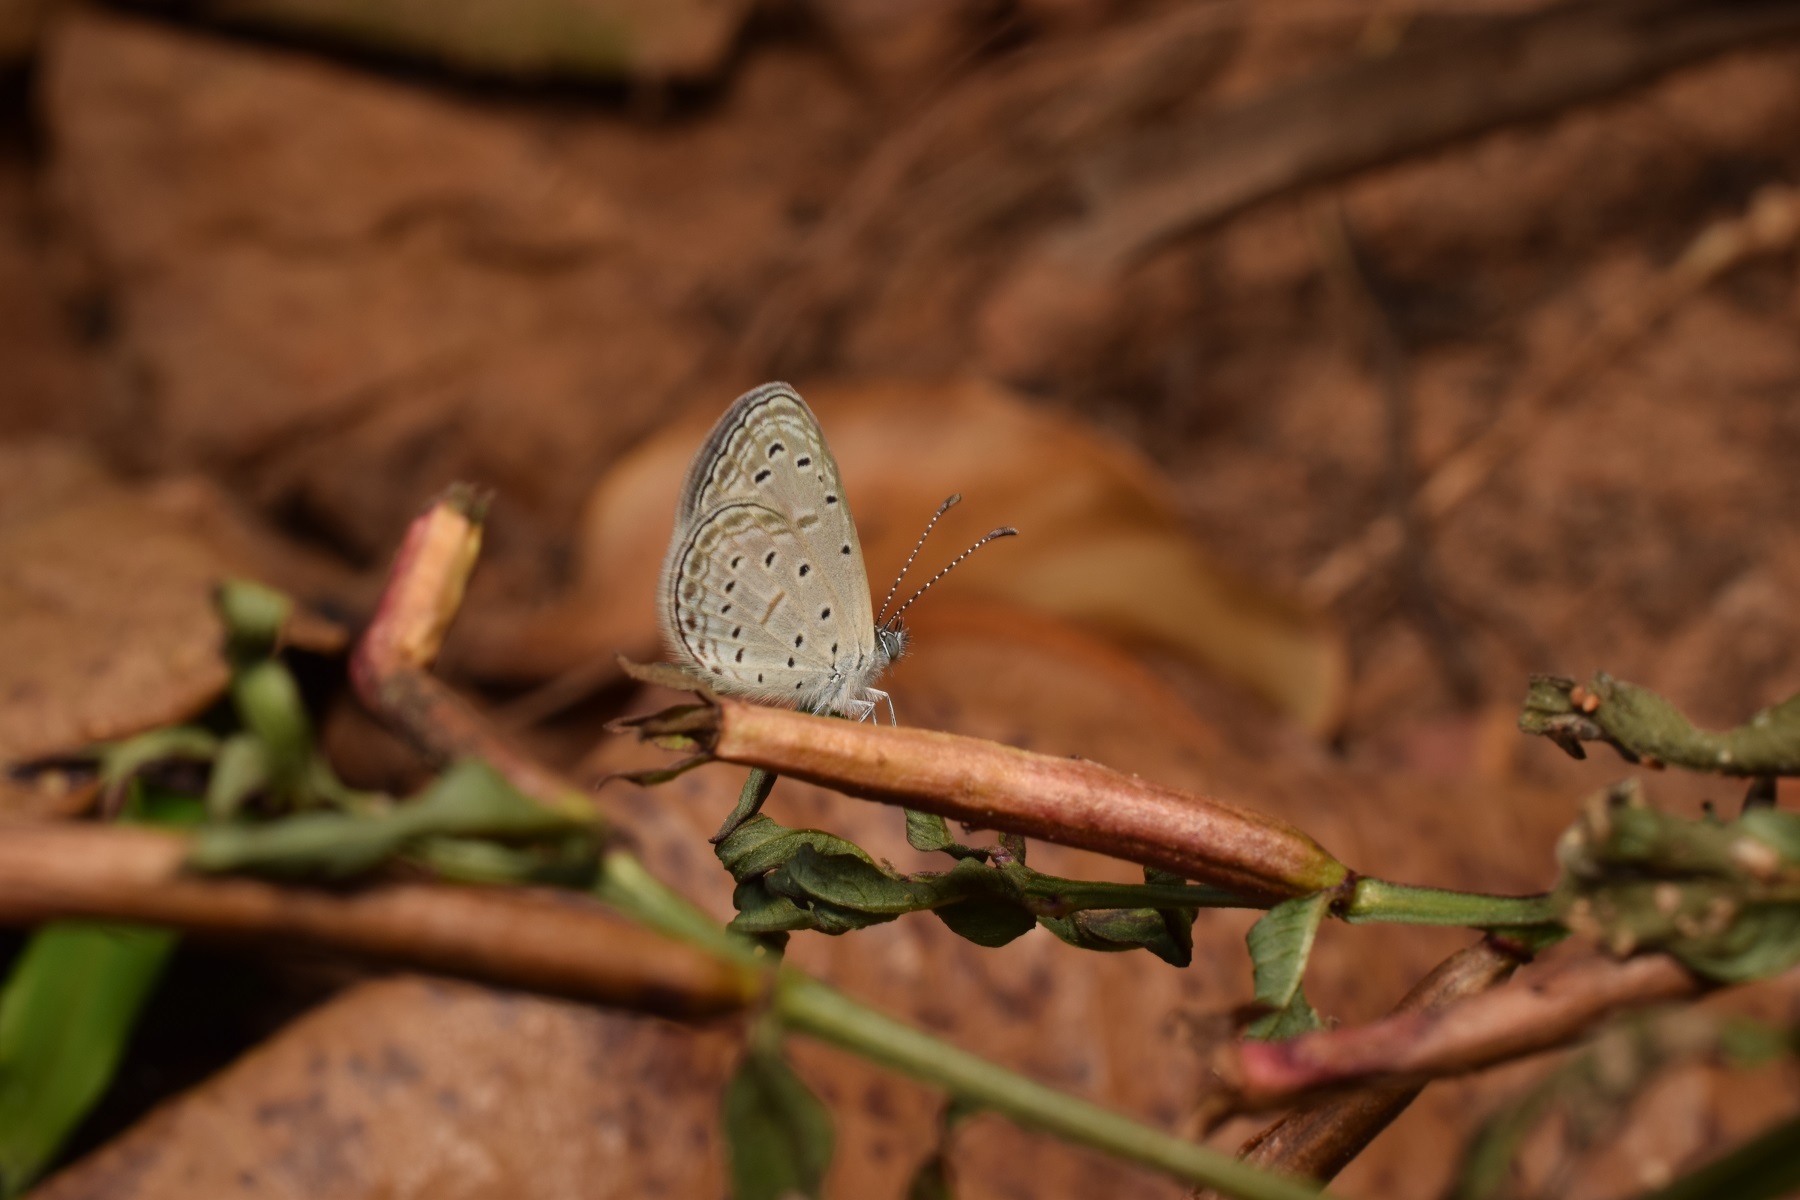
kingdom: Animalia
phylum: Arthropoda
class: Insecta
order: Lepidoptera
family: Lycaenidae
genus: Zizula
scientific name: Zizula hylax
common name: Gaika blue
